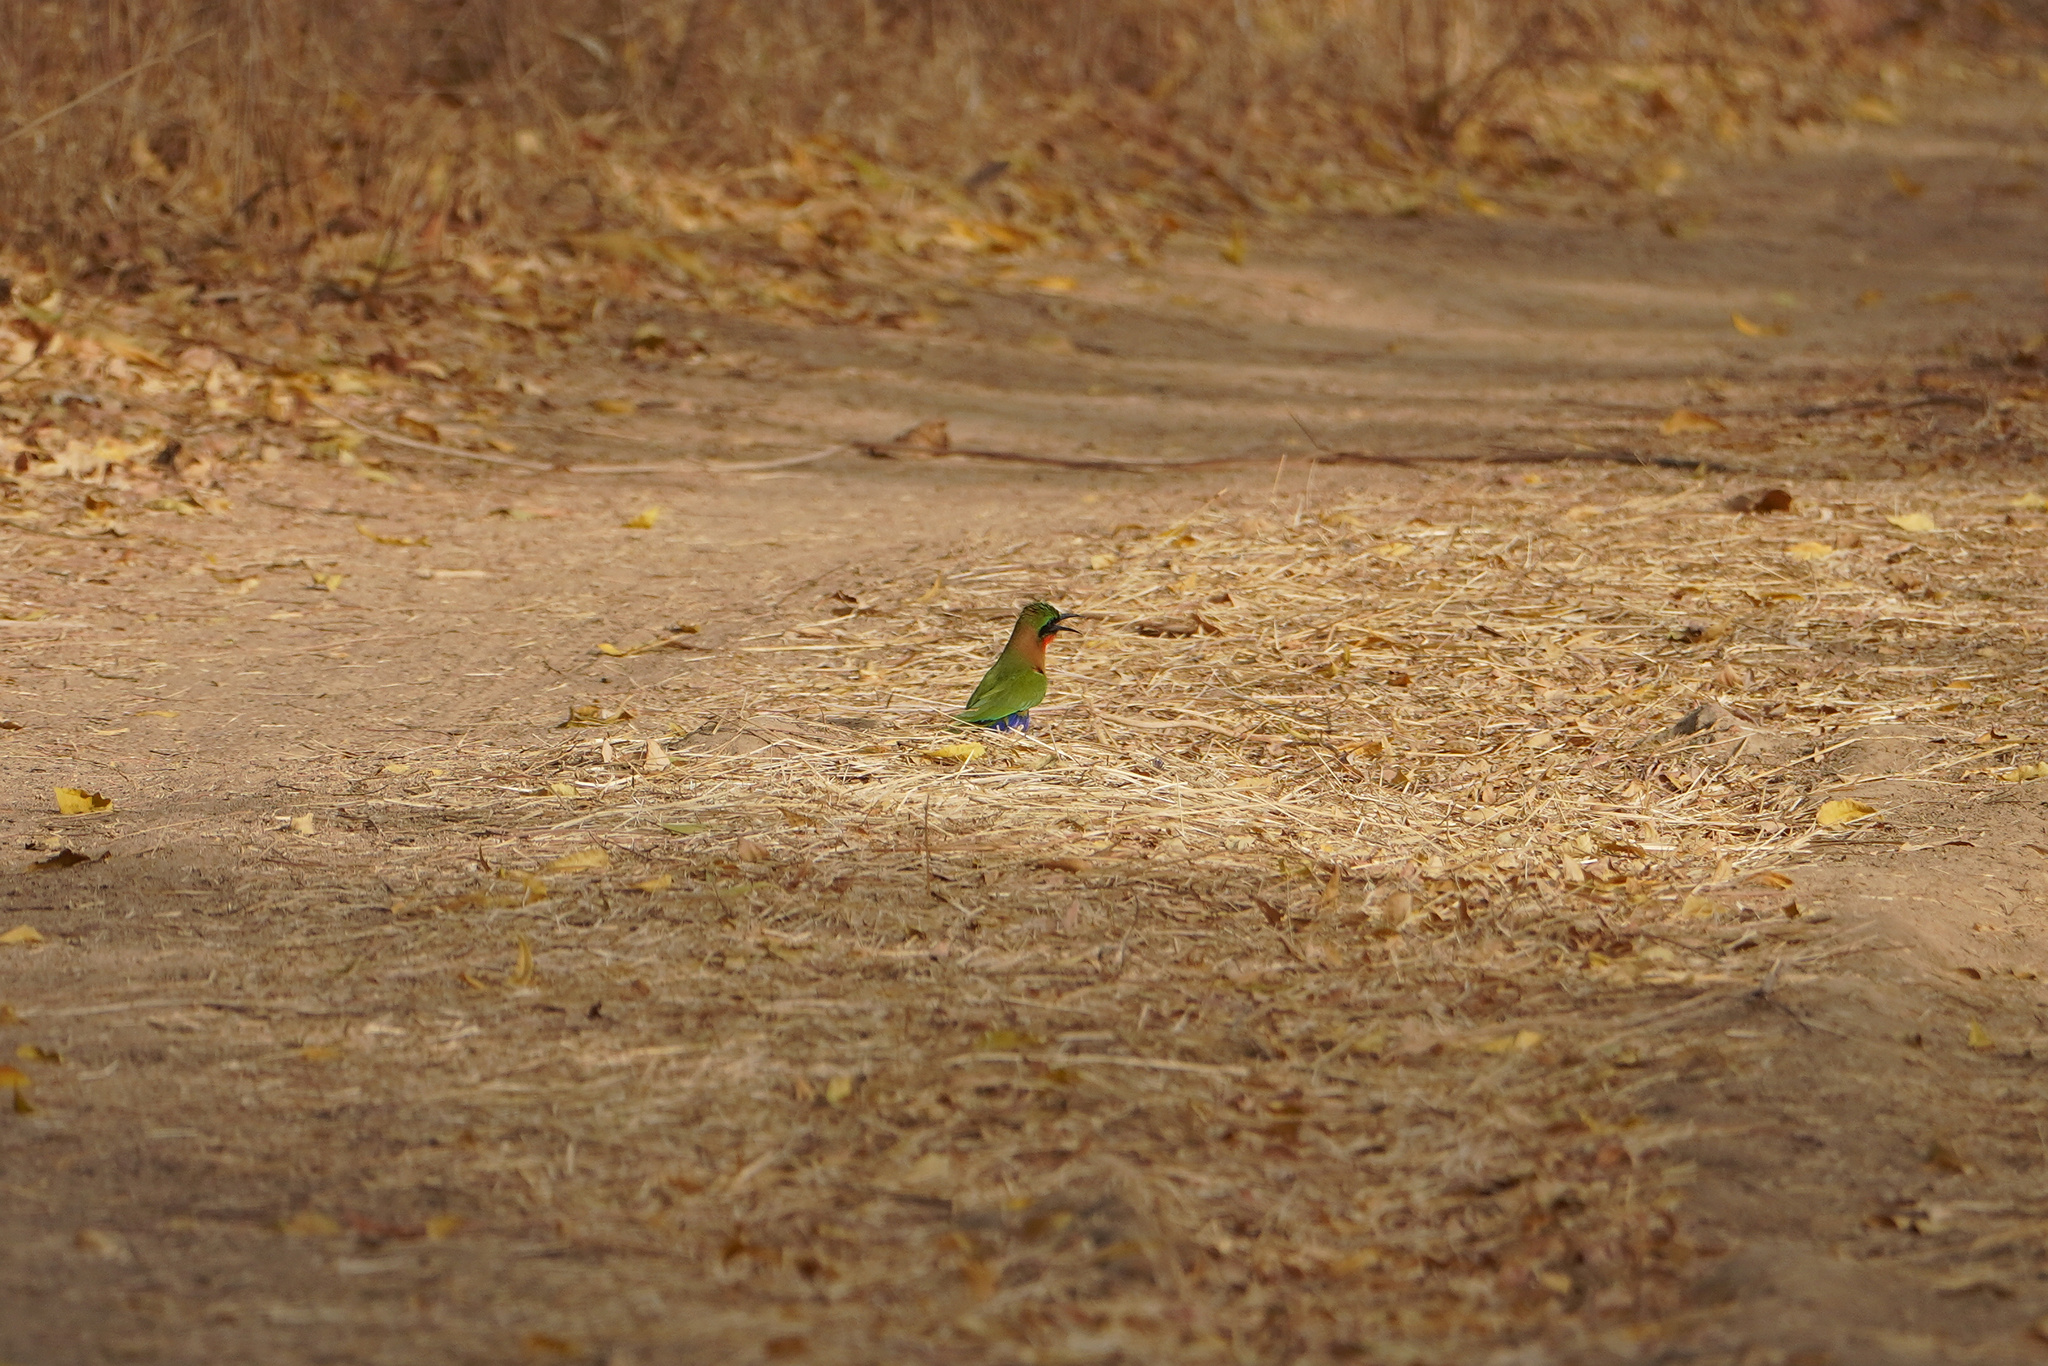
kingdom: Animalia
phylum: Chordata
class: Aves
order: Coraciiformes
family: Meropidae
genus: Merops
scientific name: Merops bulocki
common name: Red-throated bee-eater
